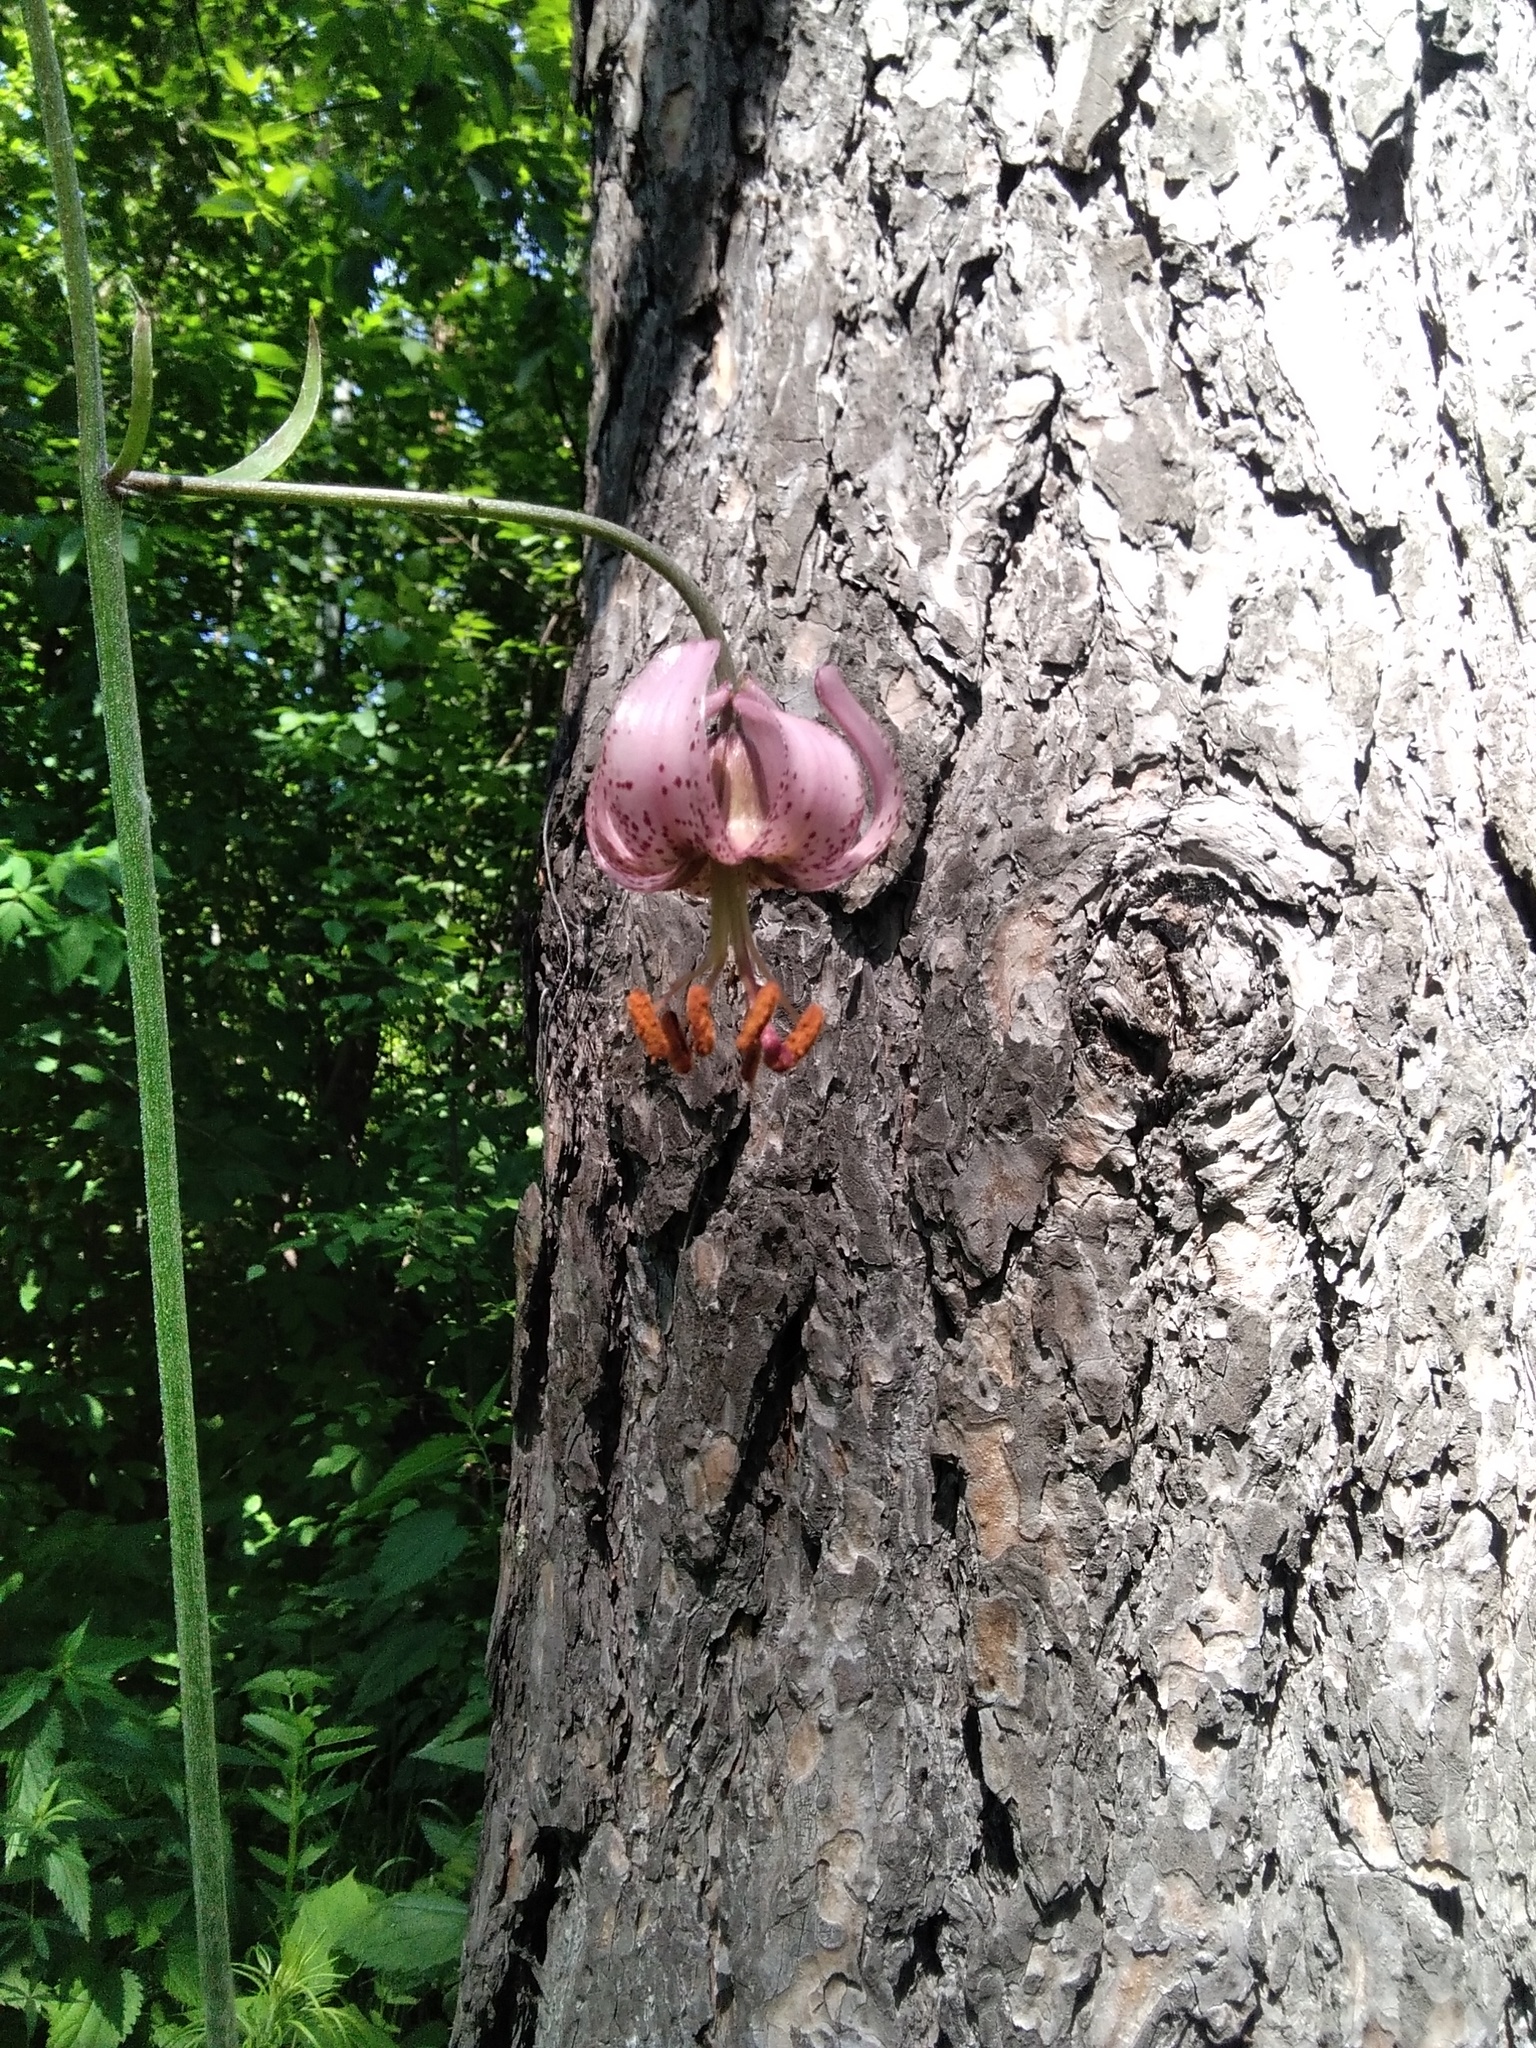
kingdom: Plantae
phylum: Tracheophyta
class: Liliopsida
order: Liliales
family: Liliaceae
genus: Lilium
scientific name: Lilium martagon
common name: Martagon lily
